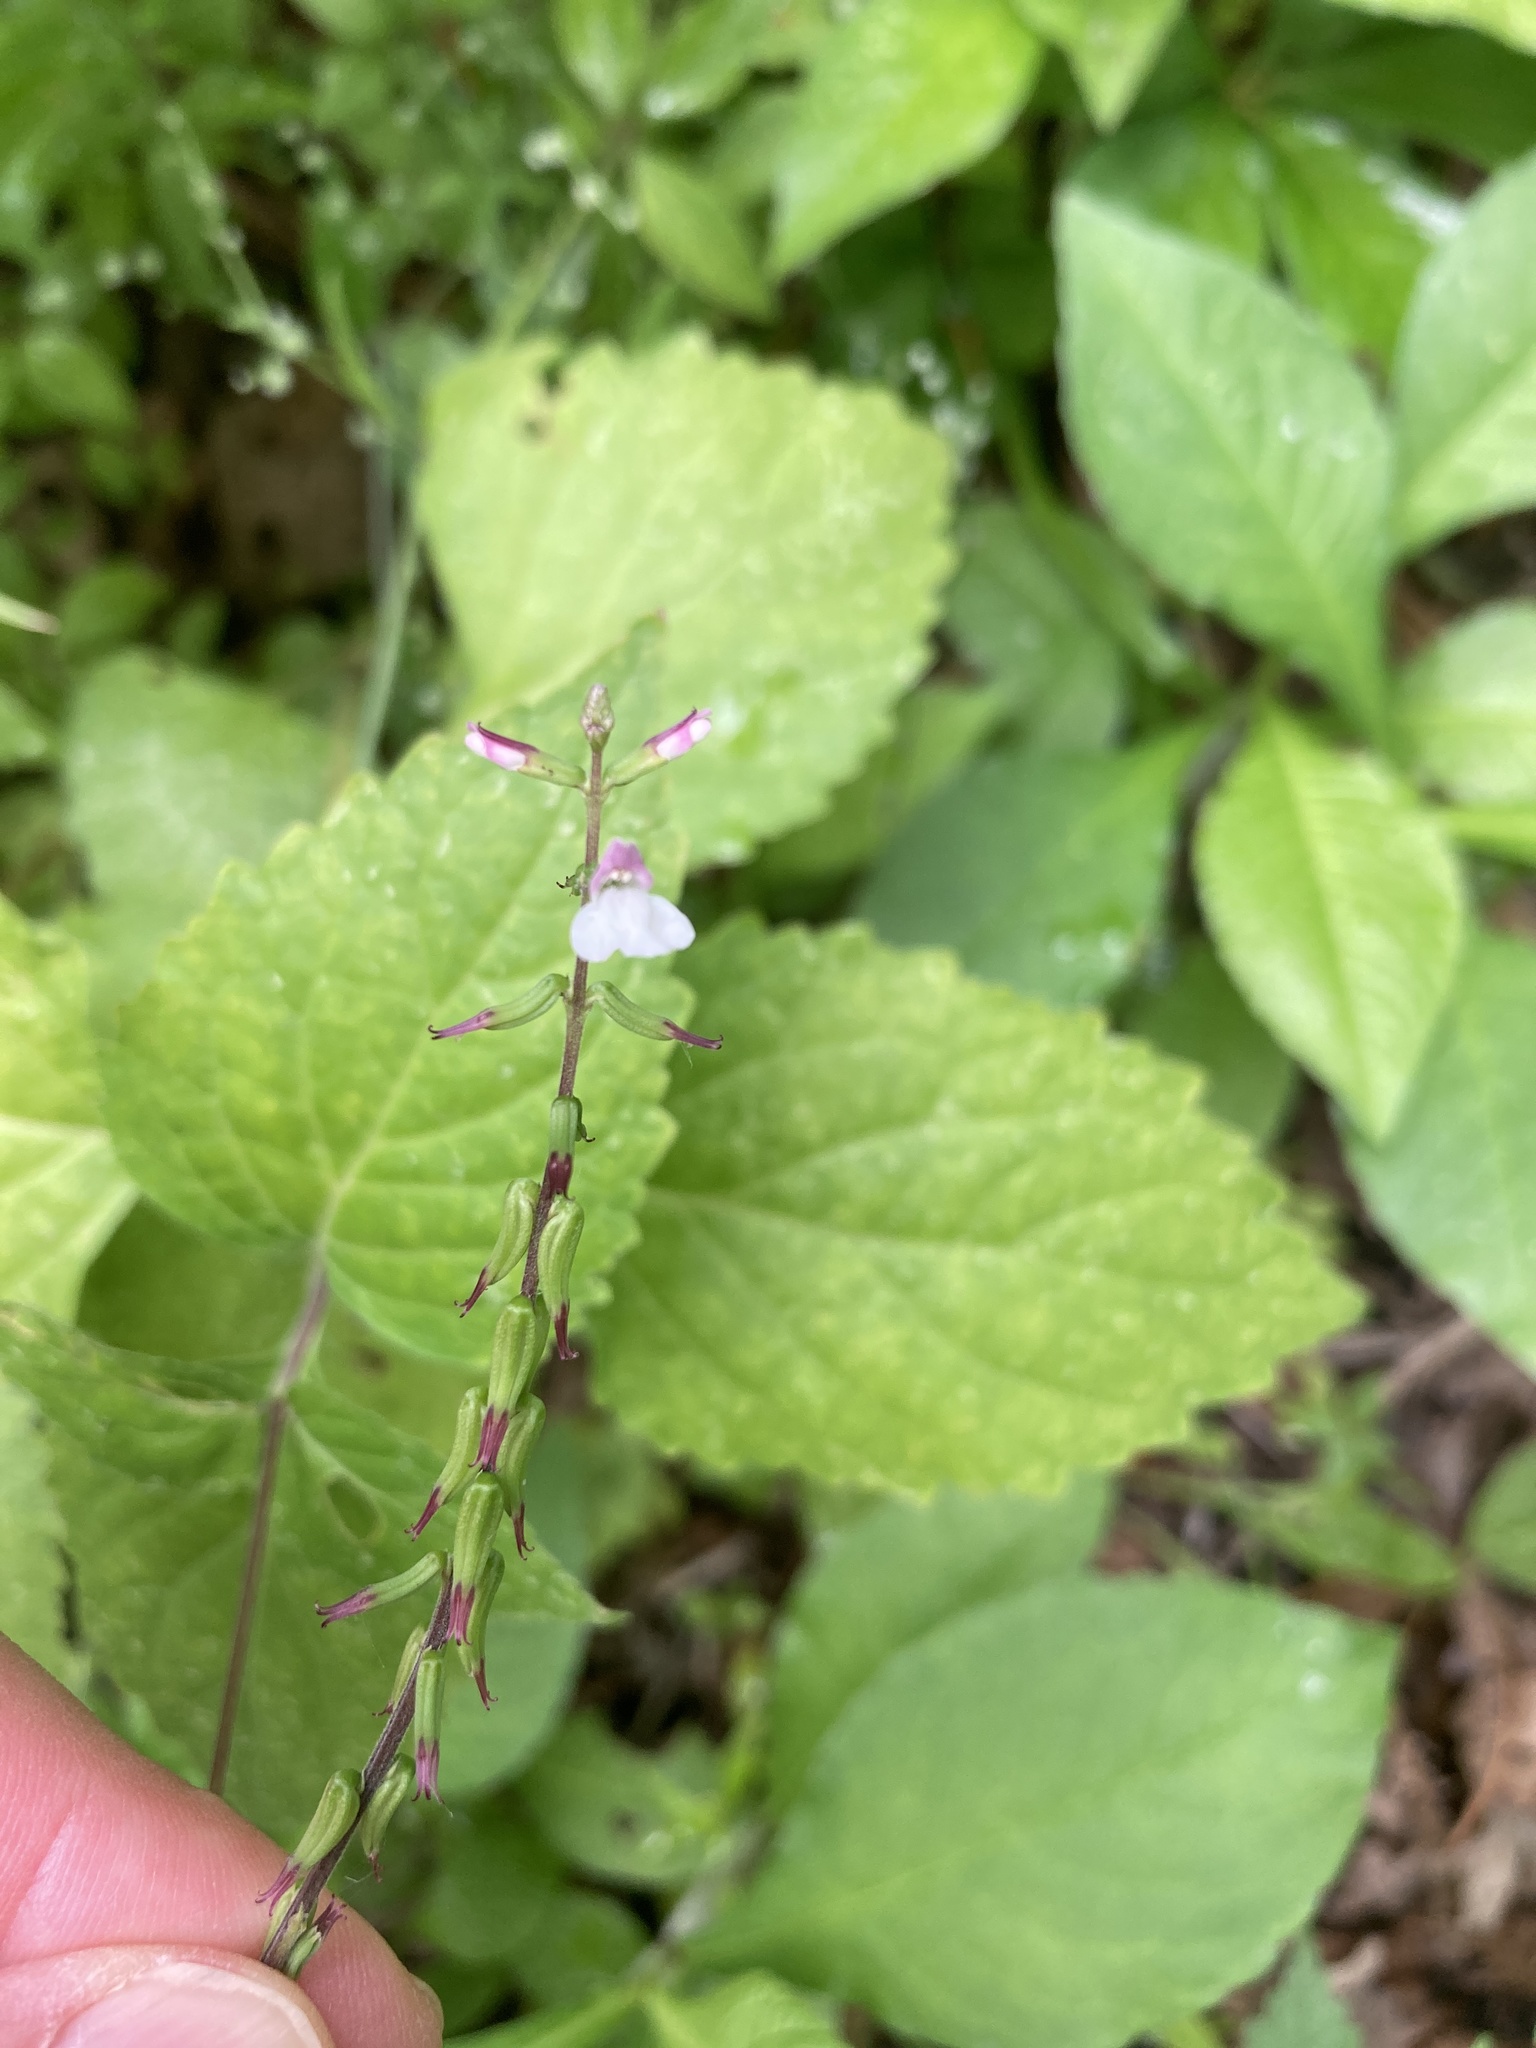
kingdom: Plantae
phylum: Tracheophyta
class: Magnoliopsida
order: Lamiales
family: Phrymaceae
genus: Phryma
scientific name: Phryma leptostachya
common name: American lopseed
